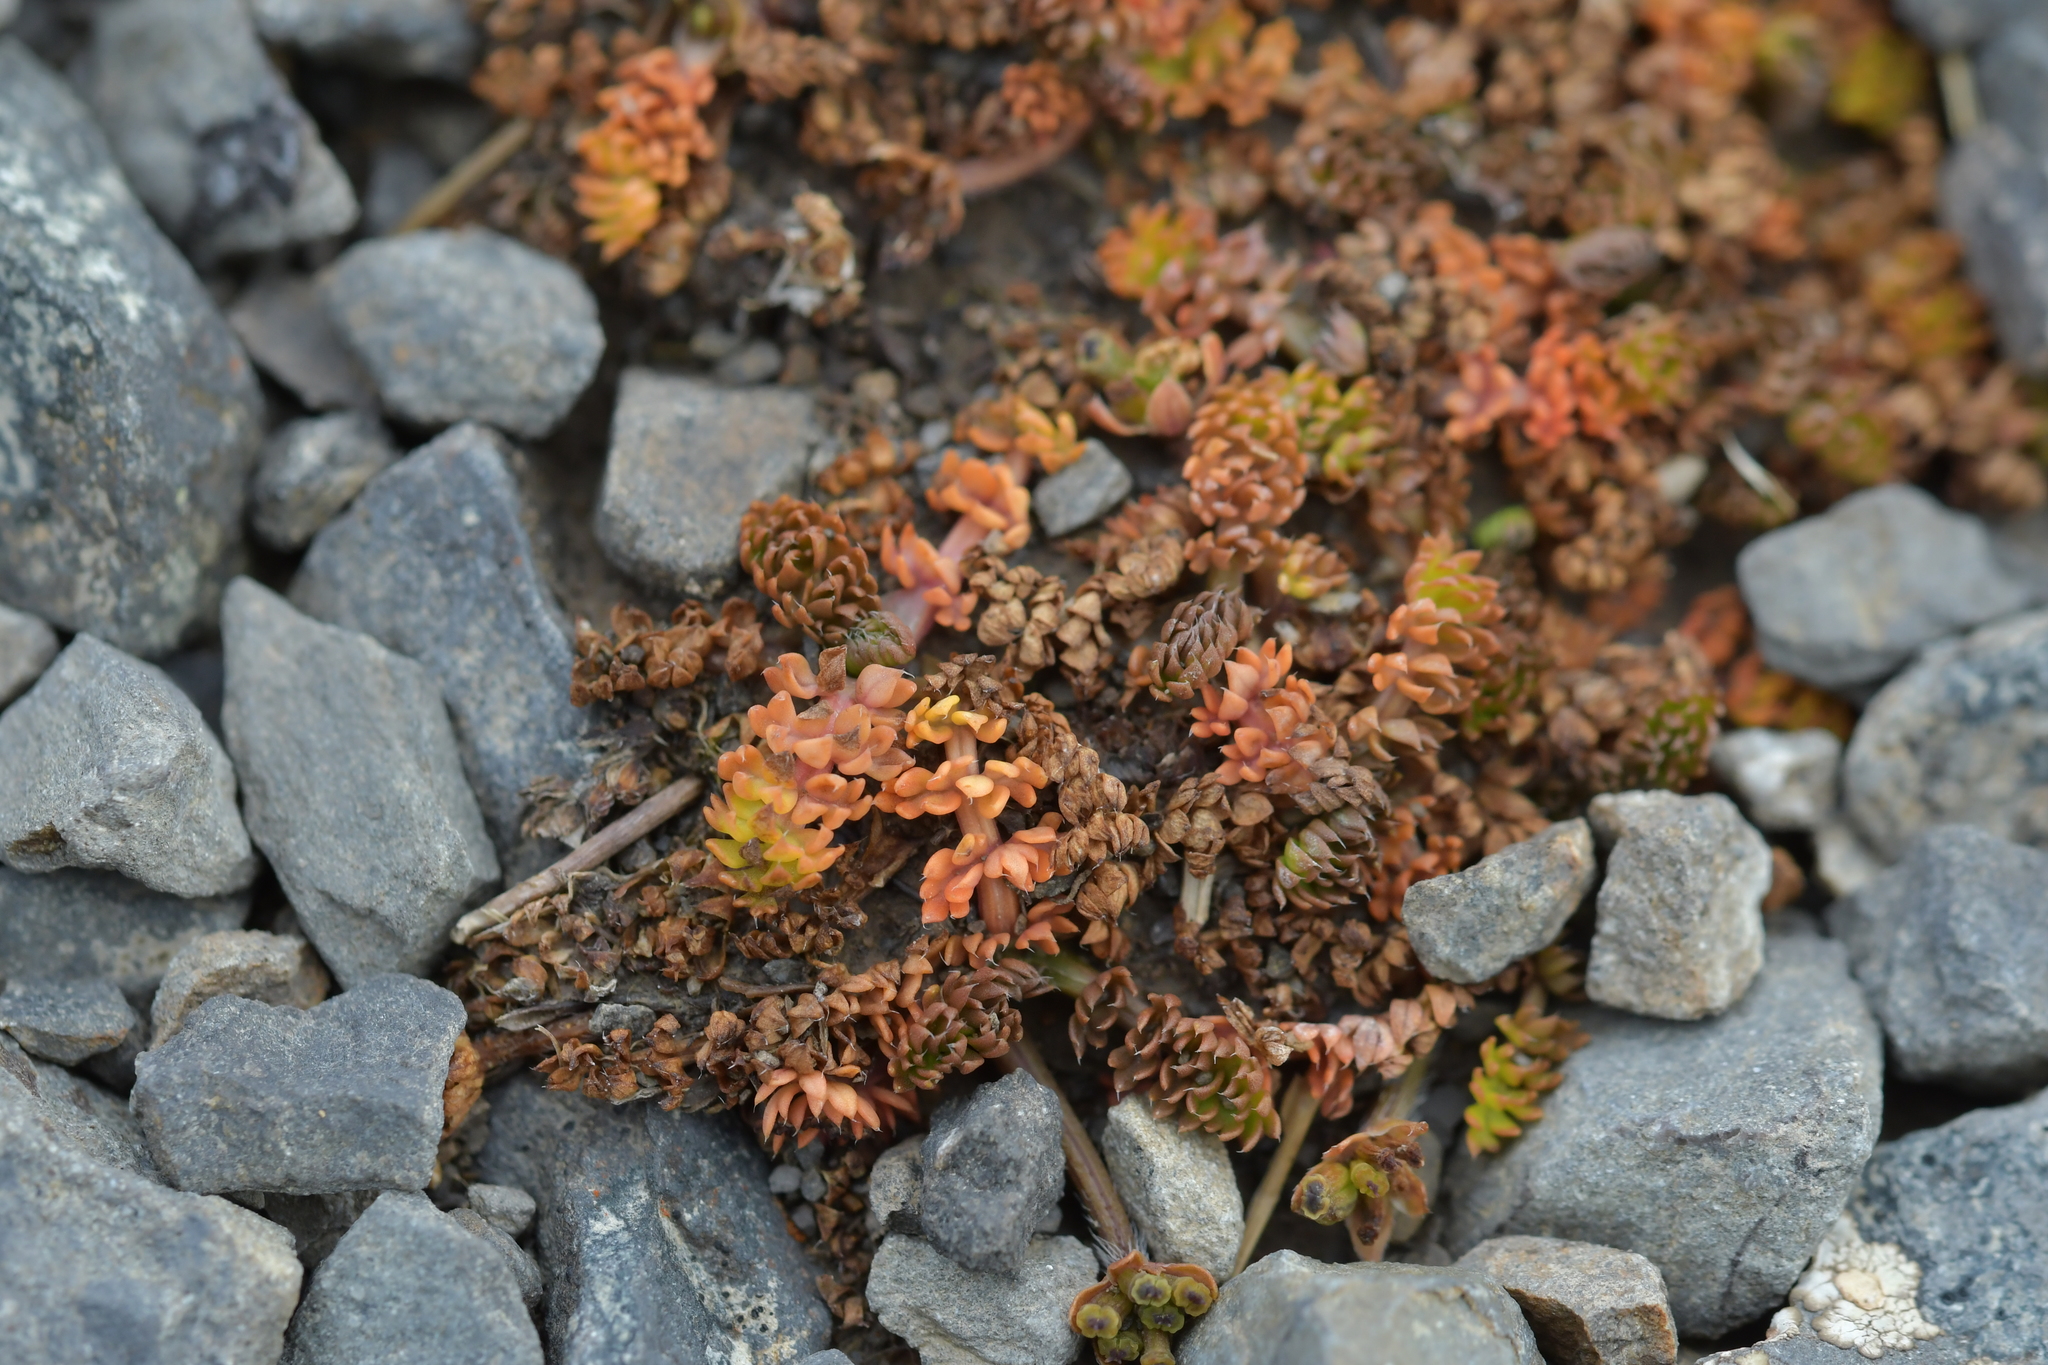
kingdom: Plantae
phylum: Tracheophyta
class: Magnoliopsida
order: Apiales
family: Apiaceae
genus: Chaerophyllum
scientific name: Chaerophyllum colensoi
